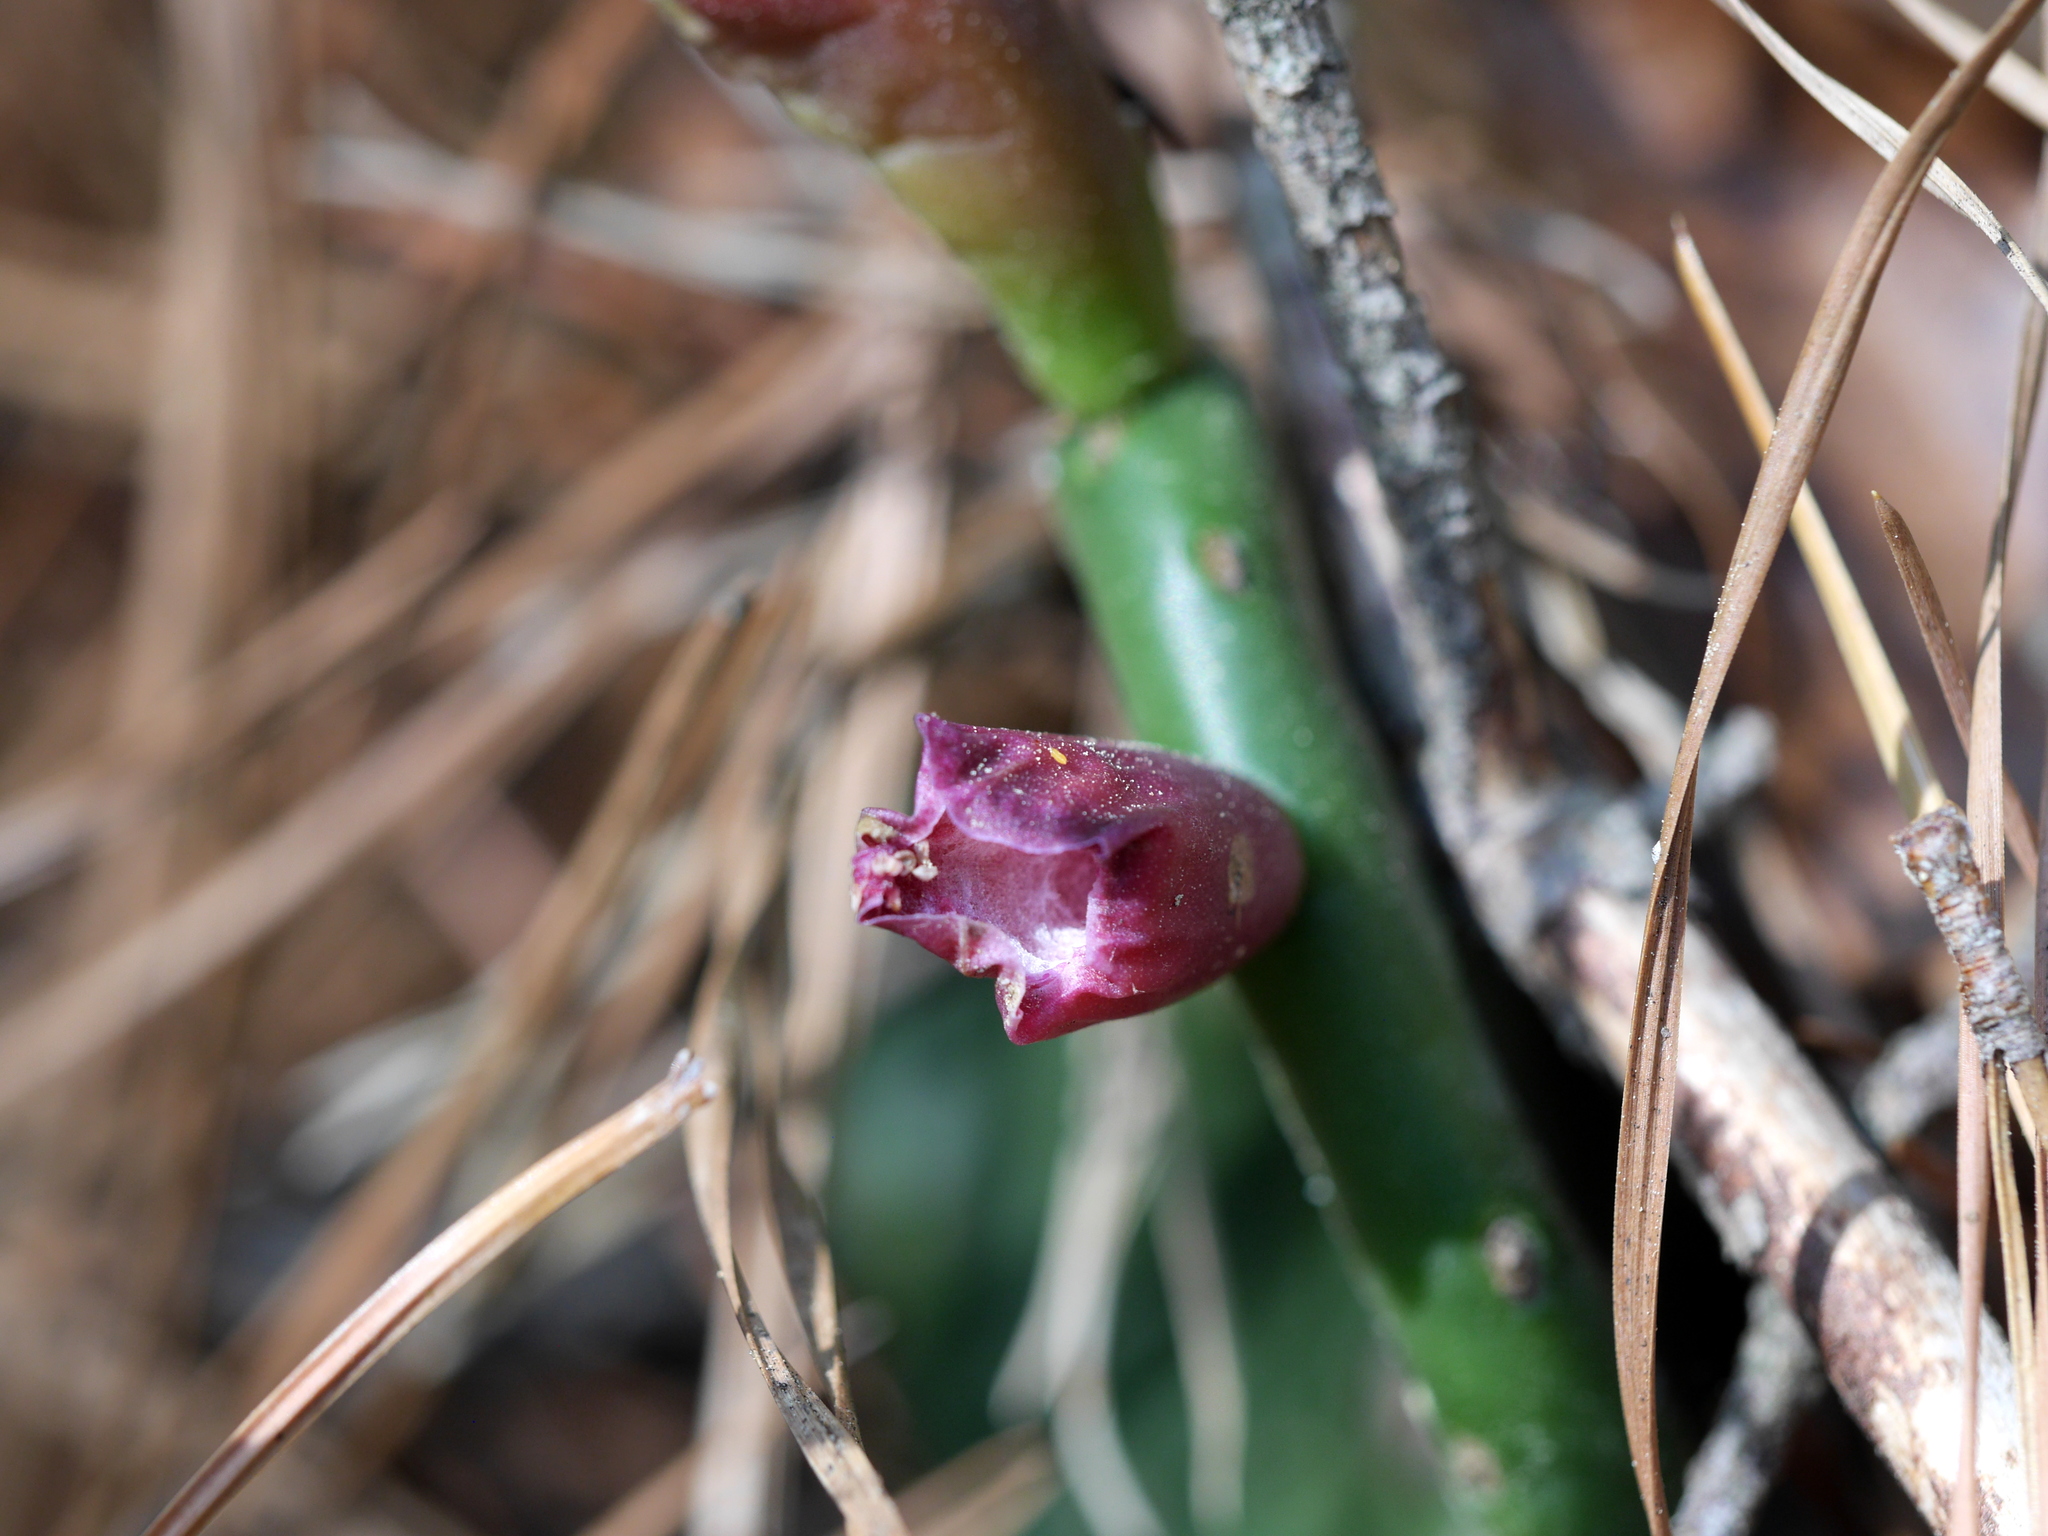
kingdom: Plantae
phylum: Tracheophyta
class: Magnoliopsida
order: Caryophyllales
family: Cactaceae
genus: Opuntia
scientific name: Opuntia humifusa
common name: Eastern prickly-pear
